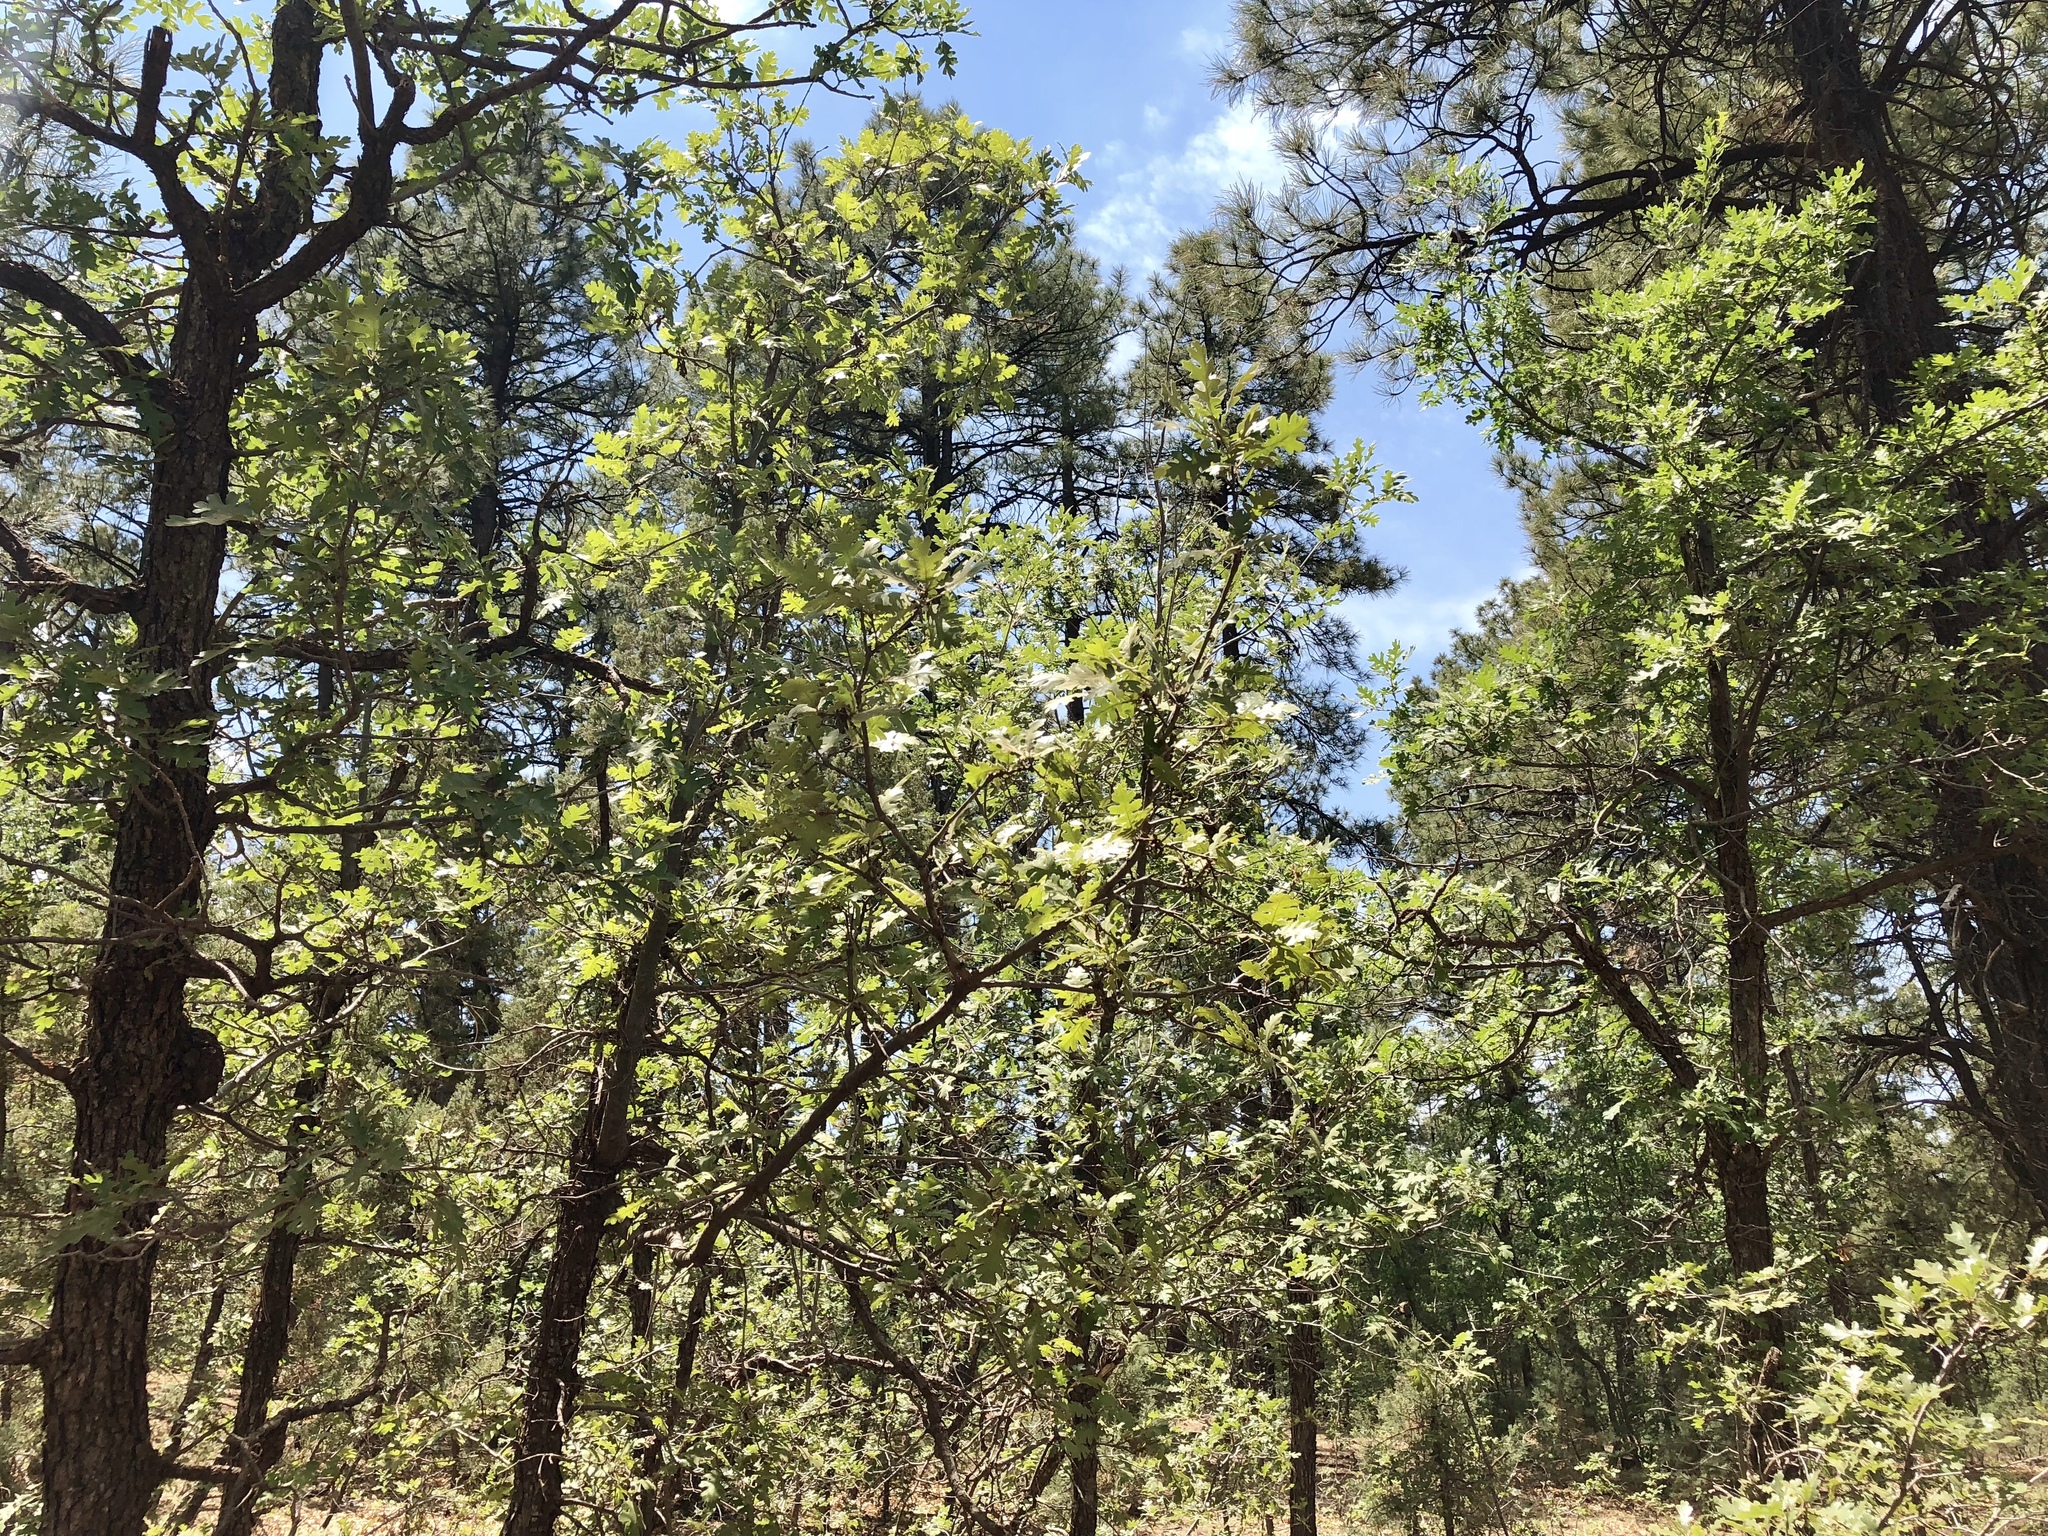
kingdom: Plantae
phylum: Tracheophyta
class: Magnoliopsida
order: Fagales
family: Fagaceae
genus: Quercus
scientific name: Quercus gambelii
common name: Gambel oak
